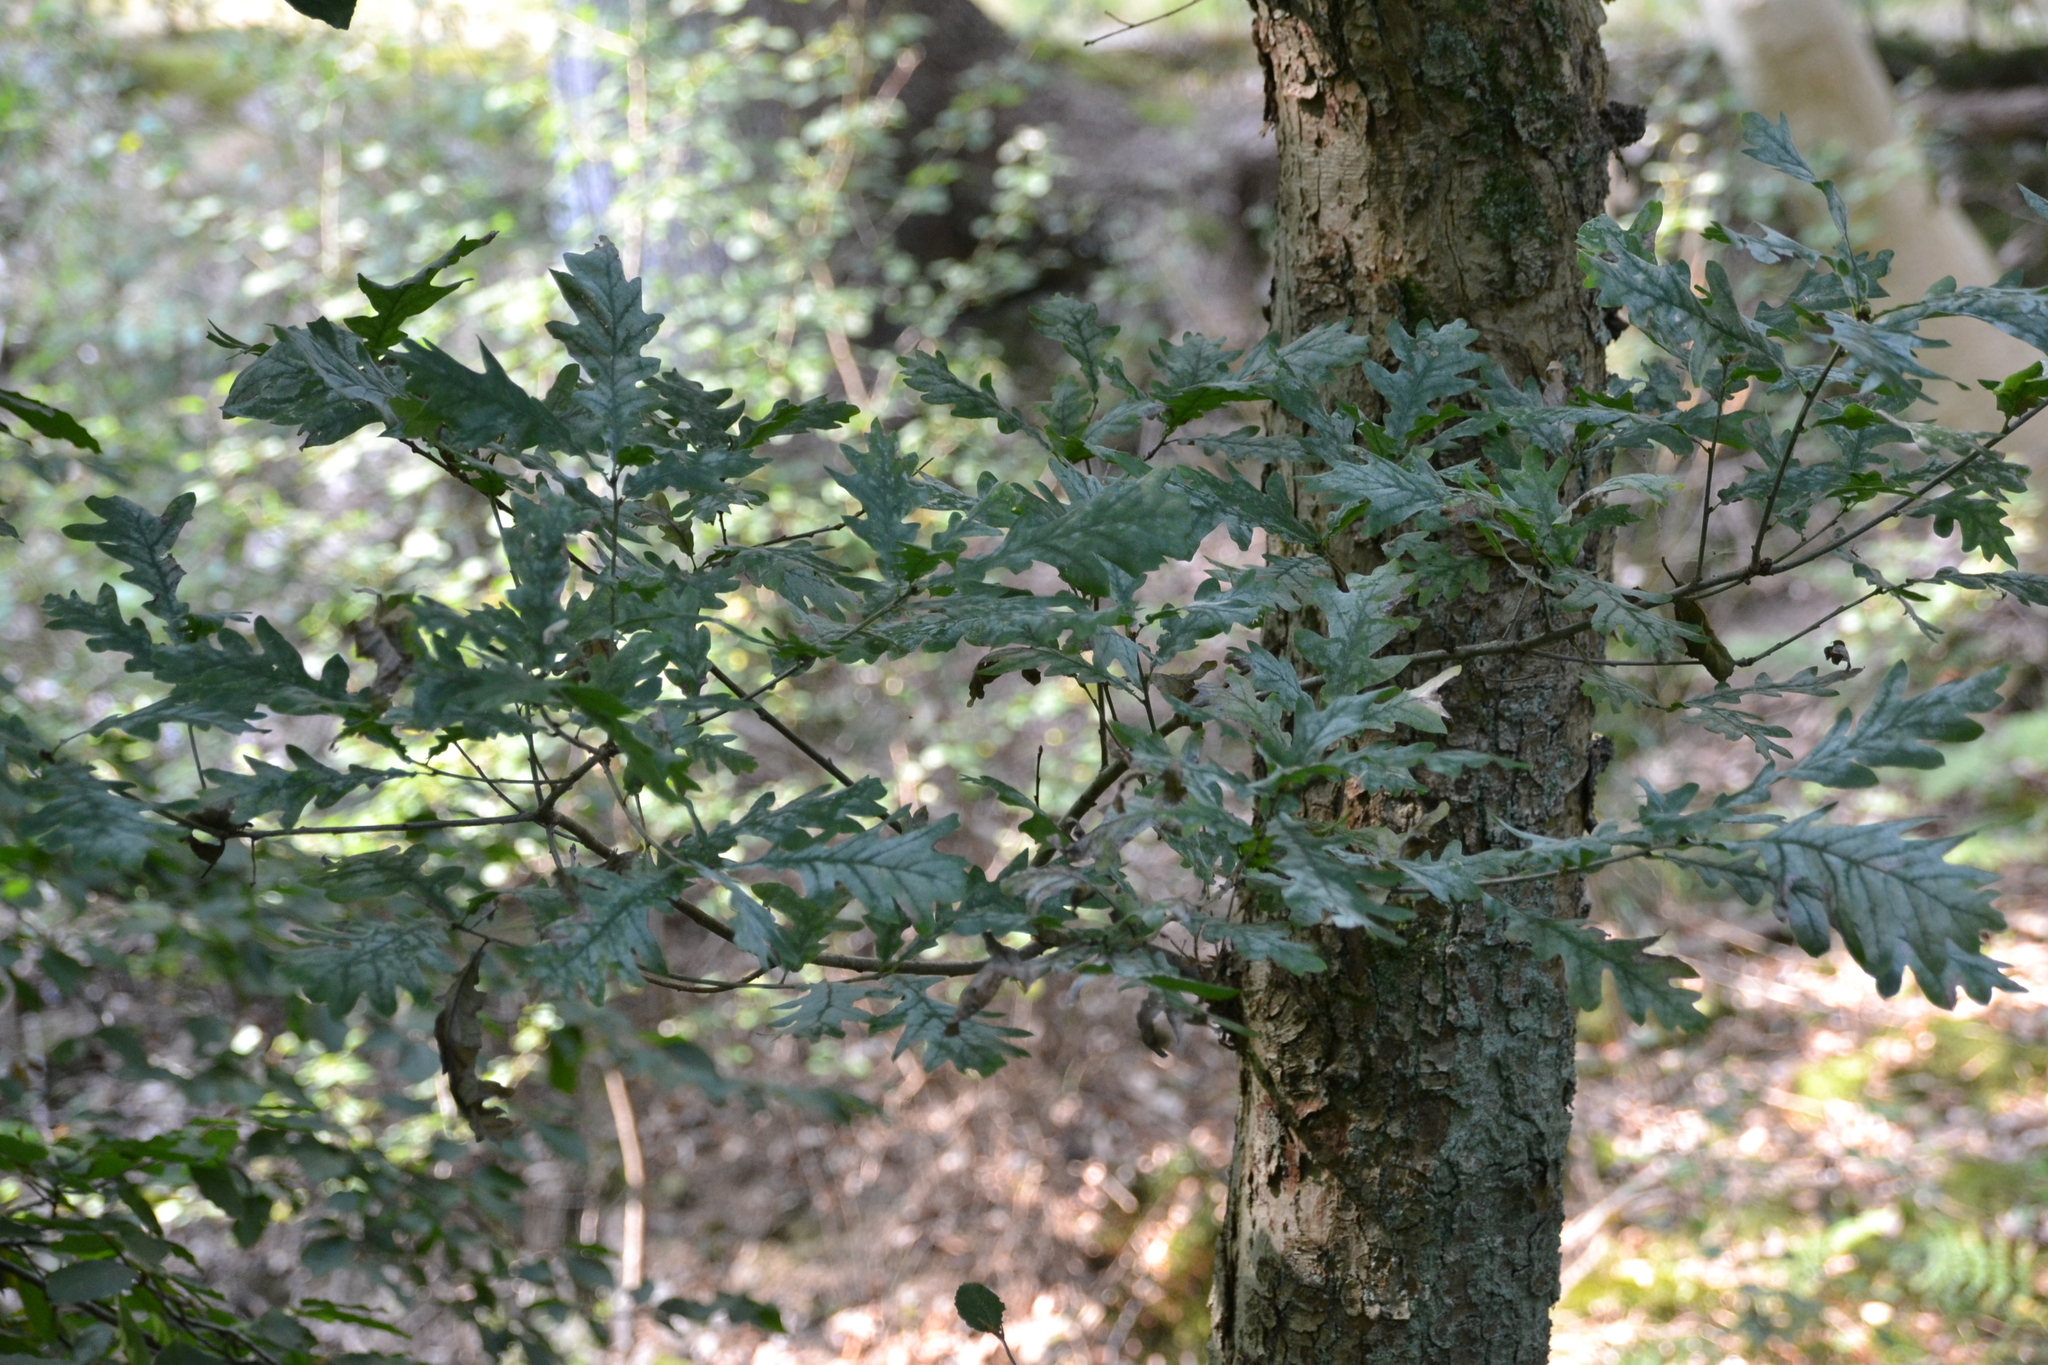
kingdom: Plantae
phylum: Tracheophyta
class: Magnoliopsida
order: Fagales
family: Fagaceae
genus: Quercus
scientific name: Quercus petraea
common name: Sessile oak
